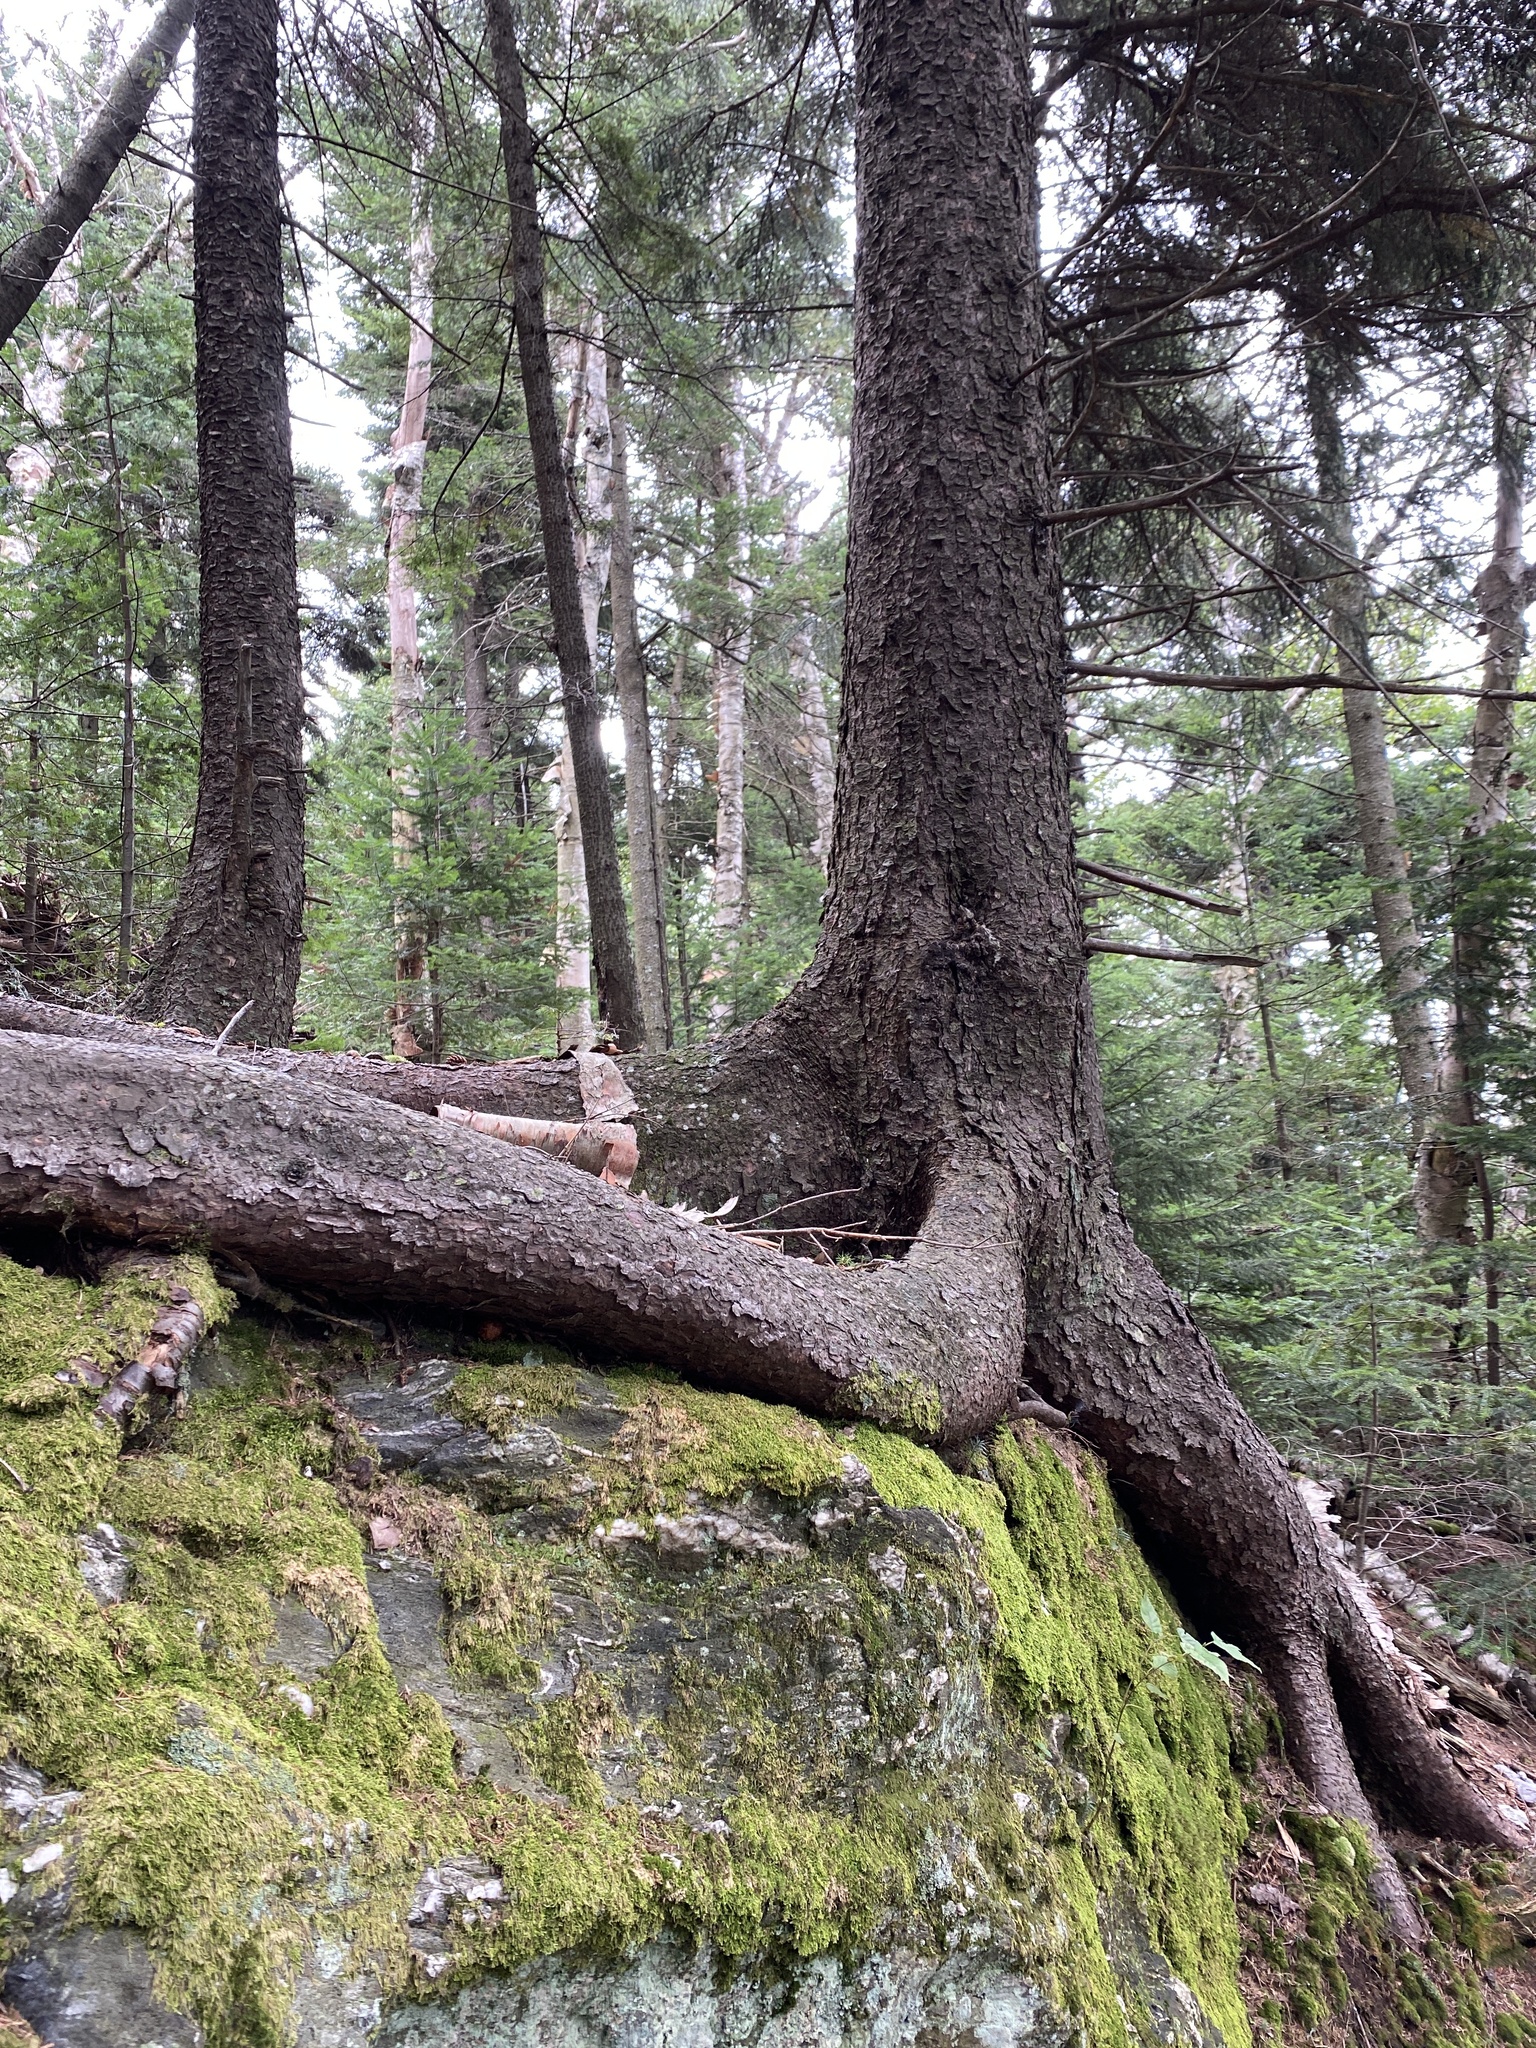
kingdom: Plantae
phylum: Tracheophyta
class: Pinopsida
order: Pinales
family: Pinaceae
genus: Picea
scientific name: Picea rubens
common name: Red spruce
